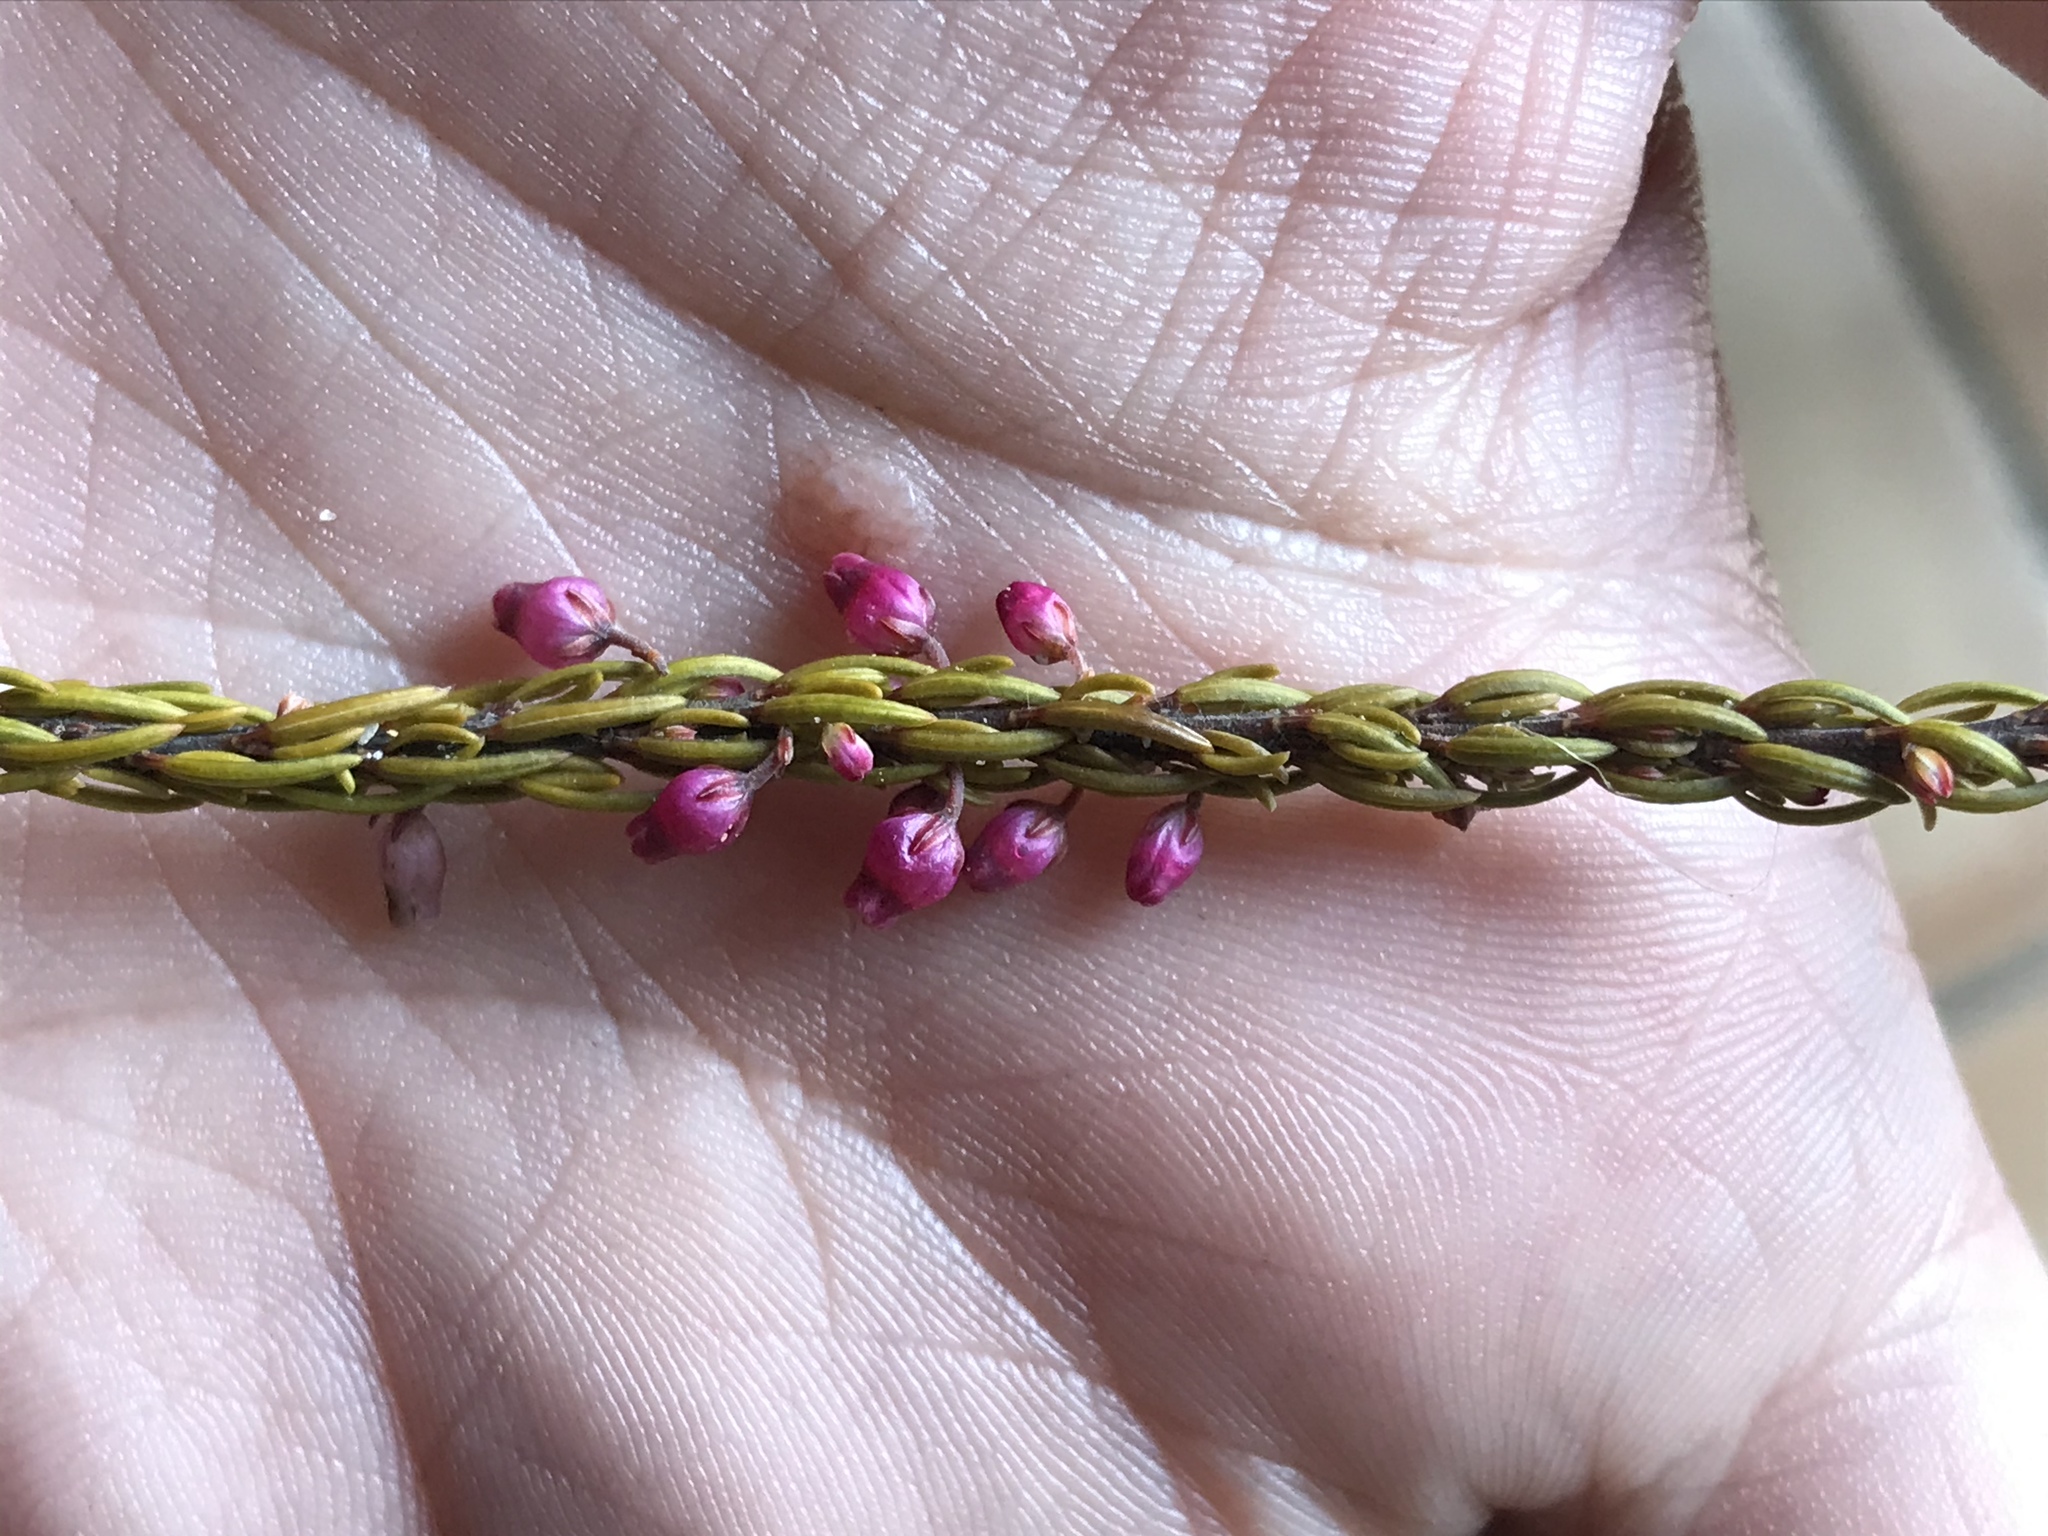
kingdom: Plantae
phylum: Tracheophyta
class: Magnoliopsida
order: Ericales
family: Ericaceae
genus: Erica
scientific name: Erica globulifera
